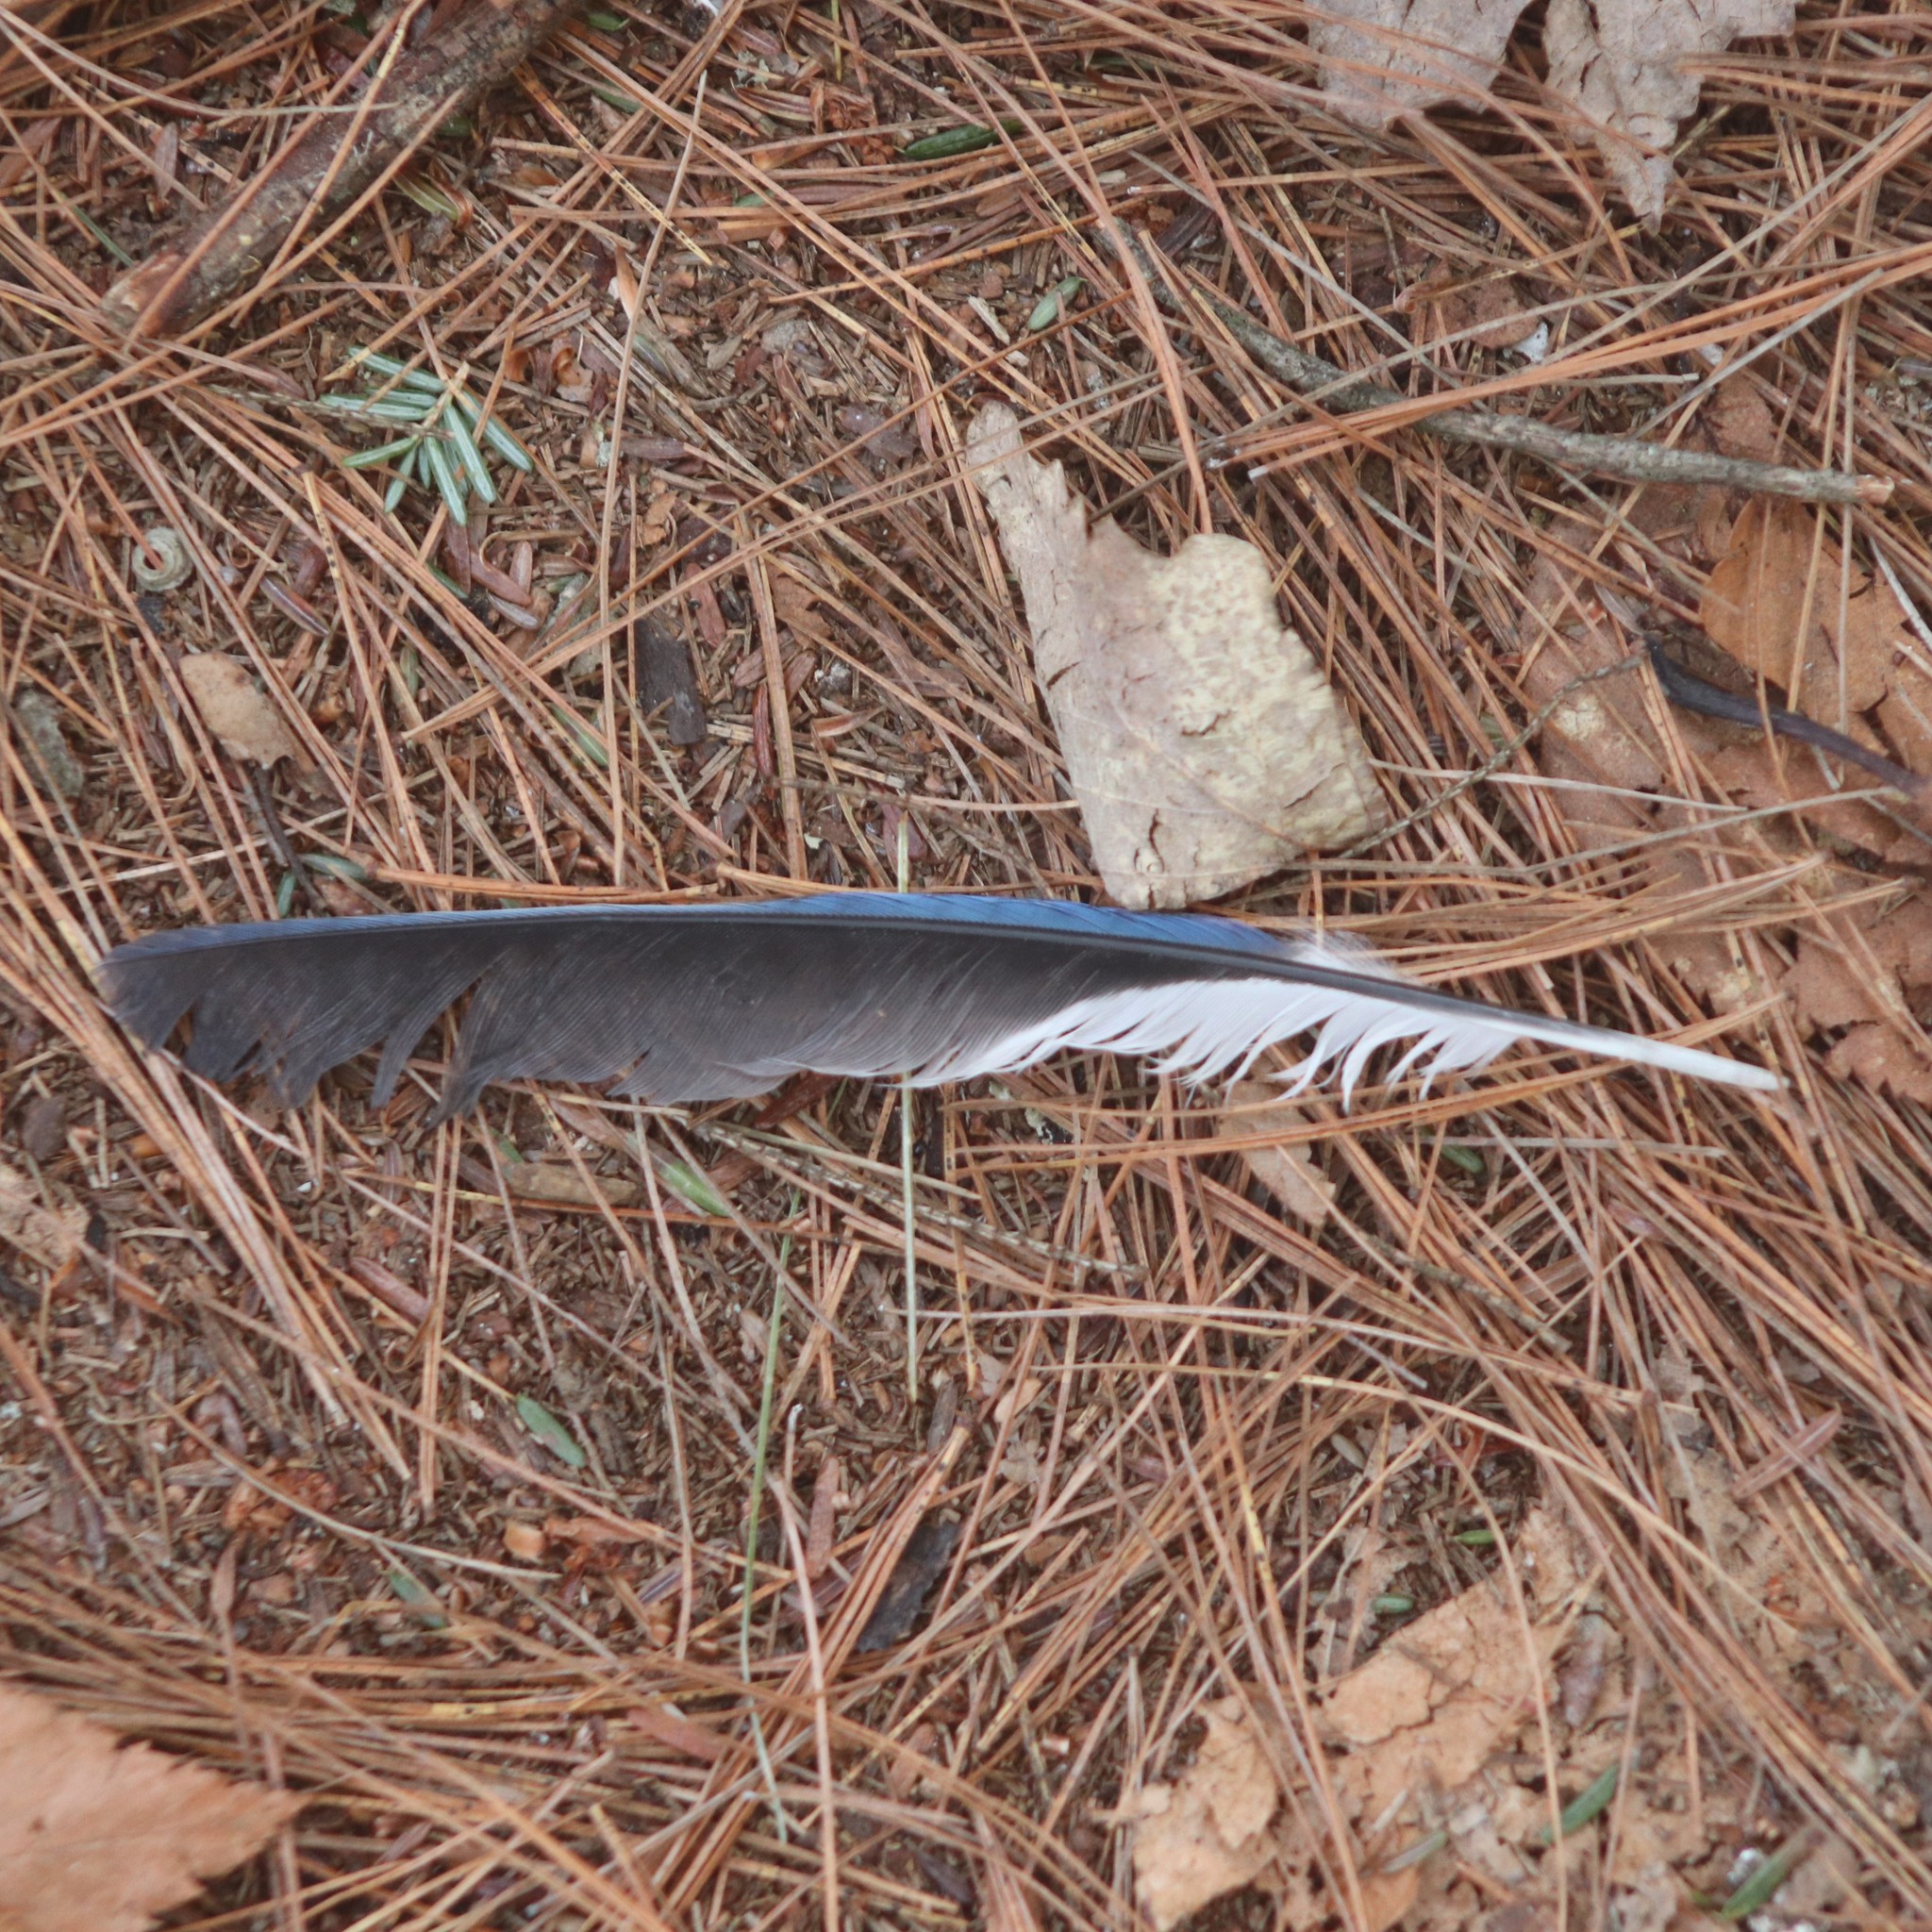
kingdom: Animalia
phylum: Chordata
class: Aves
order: Passeriformes
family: Corvidae
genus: Cyanocitta
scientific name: Cyanocitta cristata
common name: Blue jay
